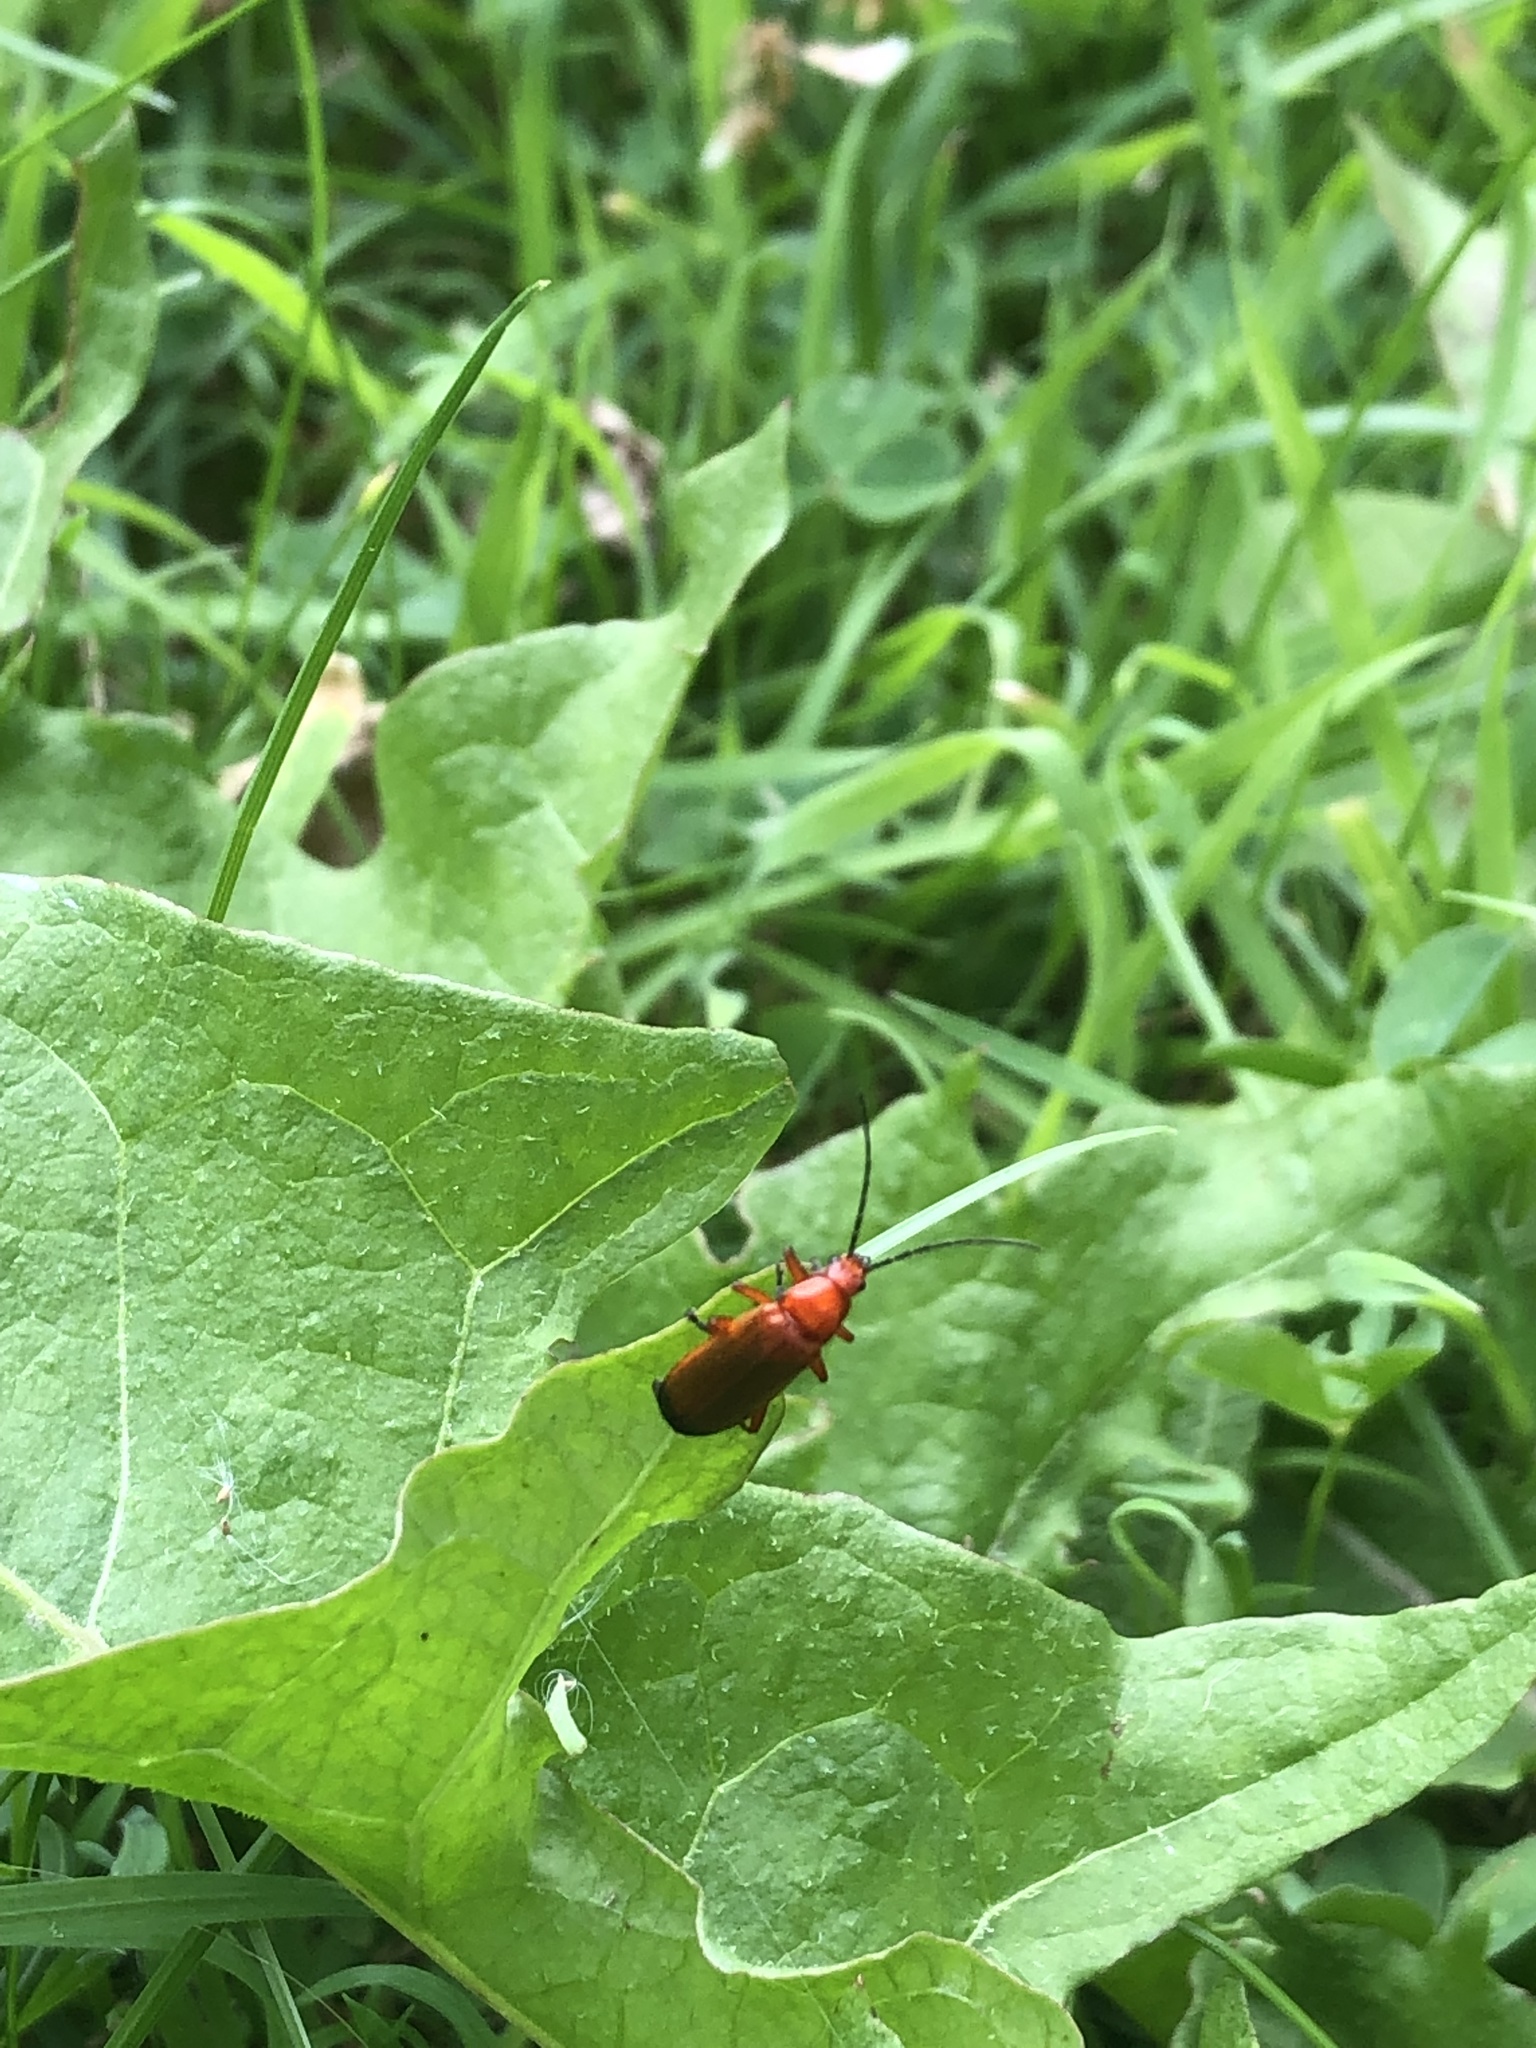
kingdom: Animalia
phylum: Arthropoda
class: Insecta
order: Coleoptera
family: Cantharidae
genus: Rhagonycha
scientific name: Rhagonycha fulva
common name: Common red soldier beetle
